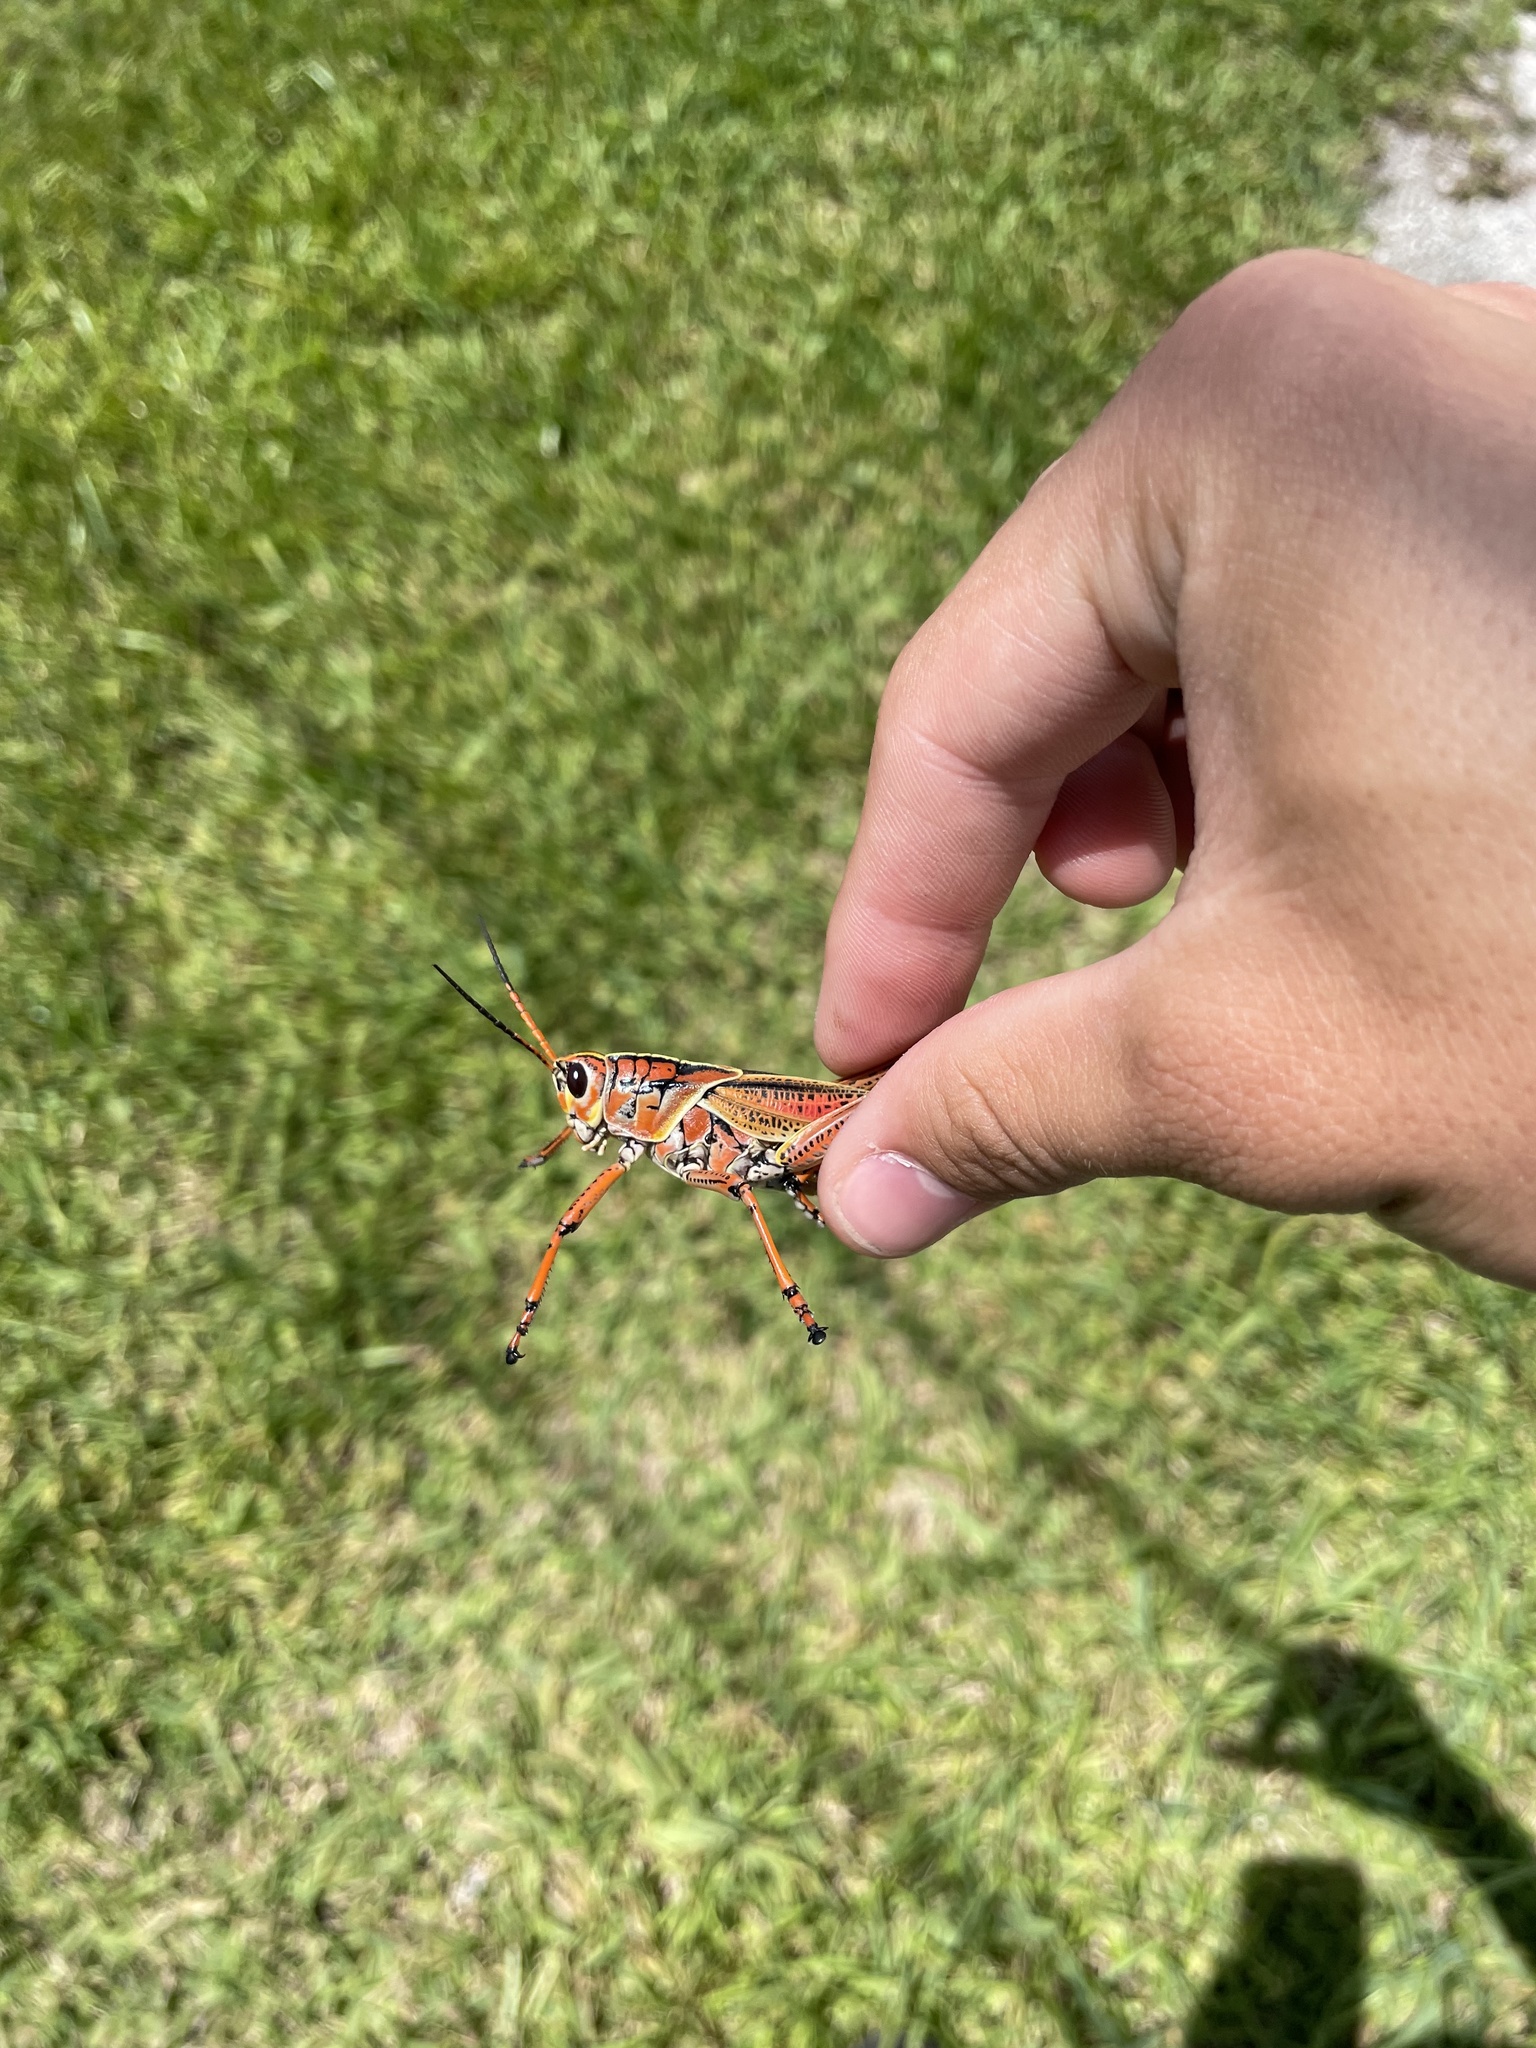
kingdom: Animalia
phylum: Arthropoda
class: Insecta
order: Orthoptera
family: Romaleidae
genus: Romalea
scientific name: Romalea microptera
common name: Eastern lubber grasshopper
